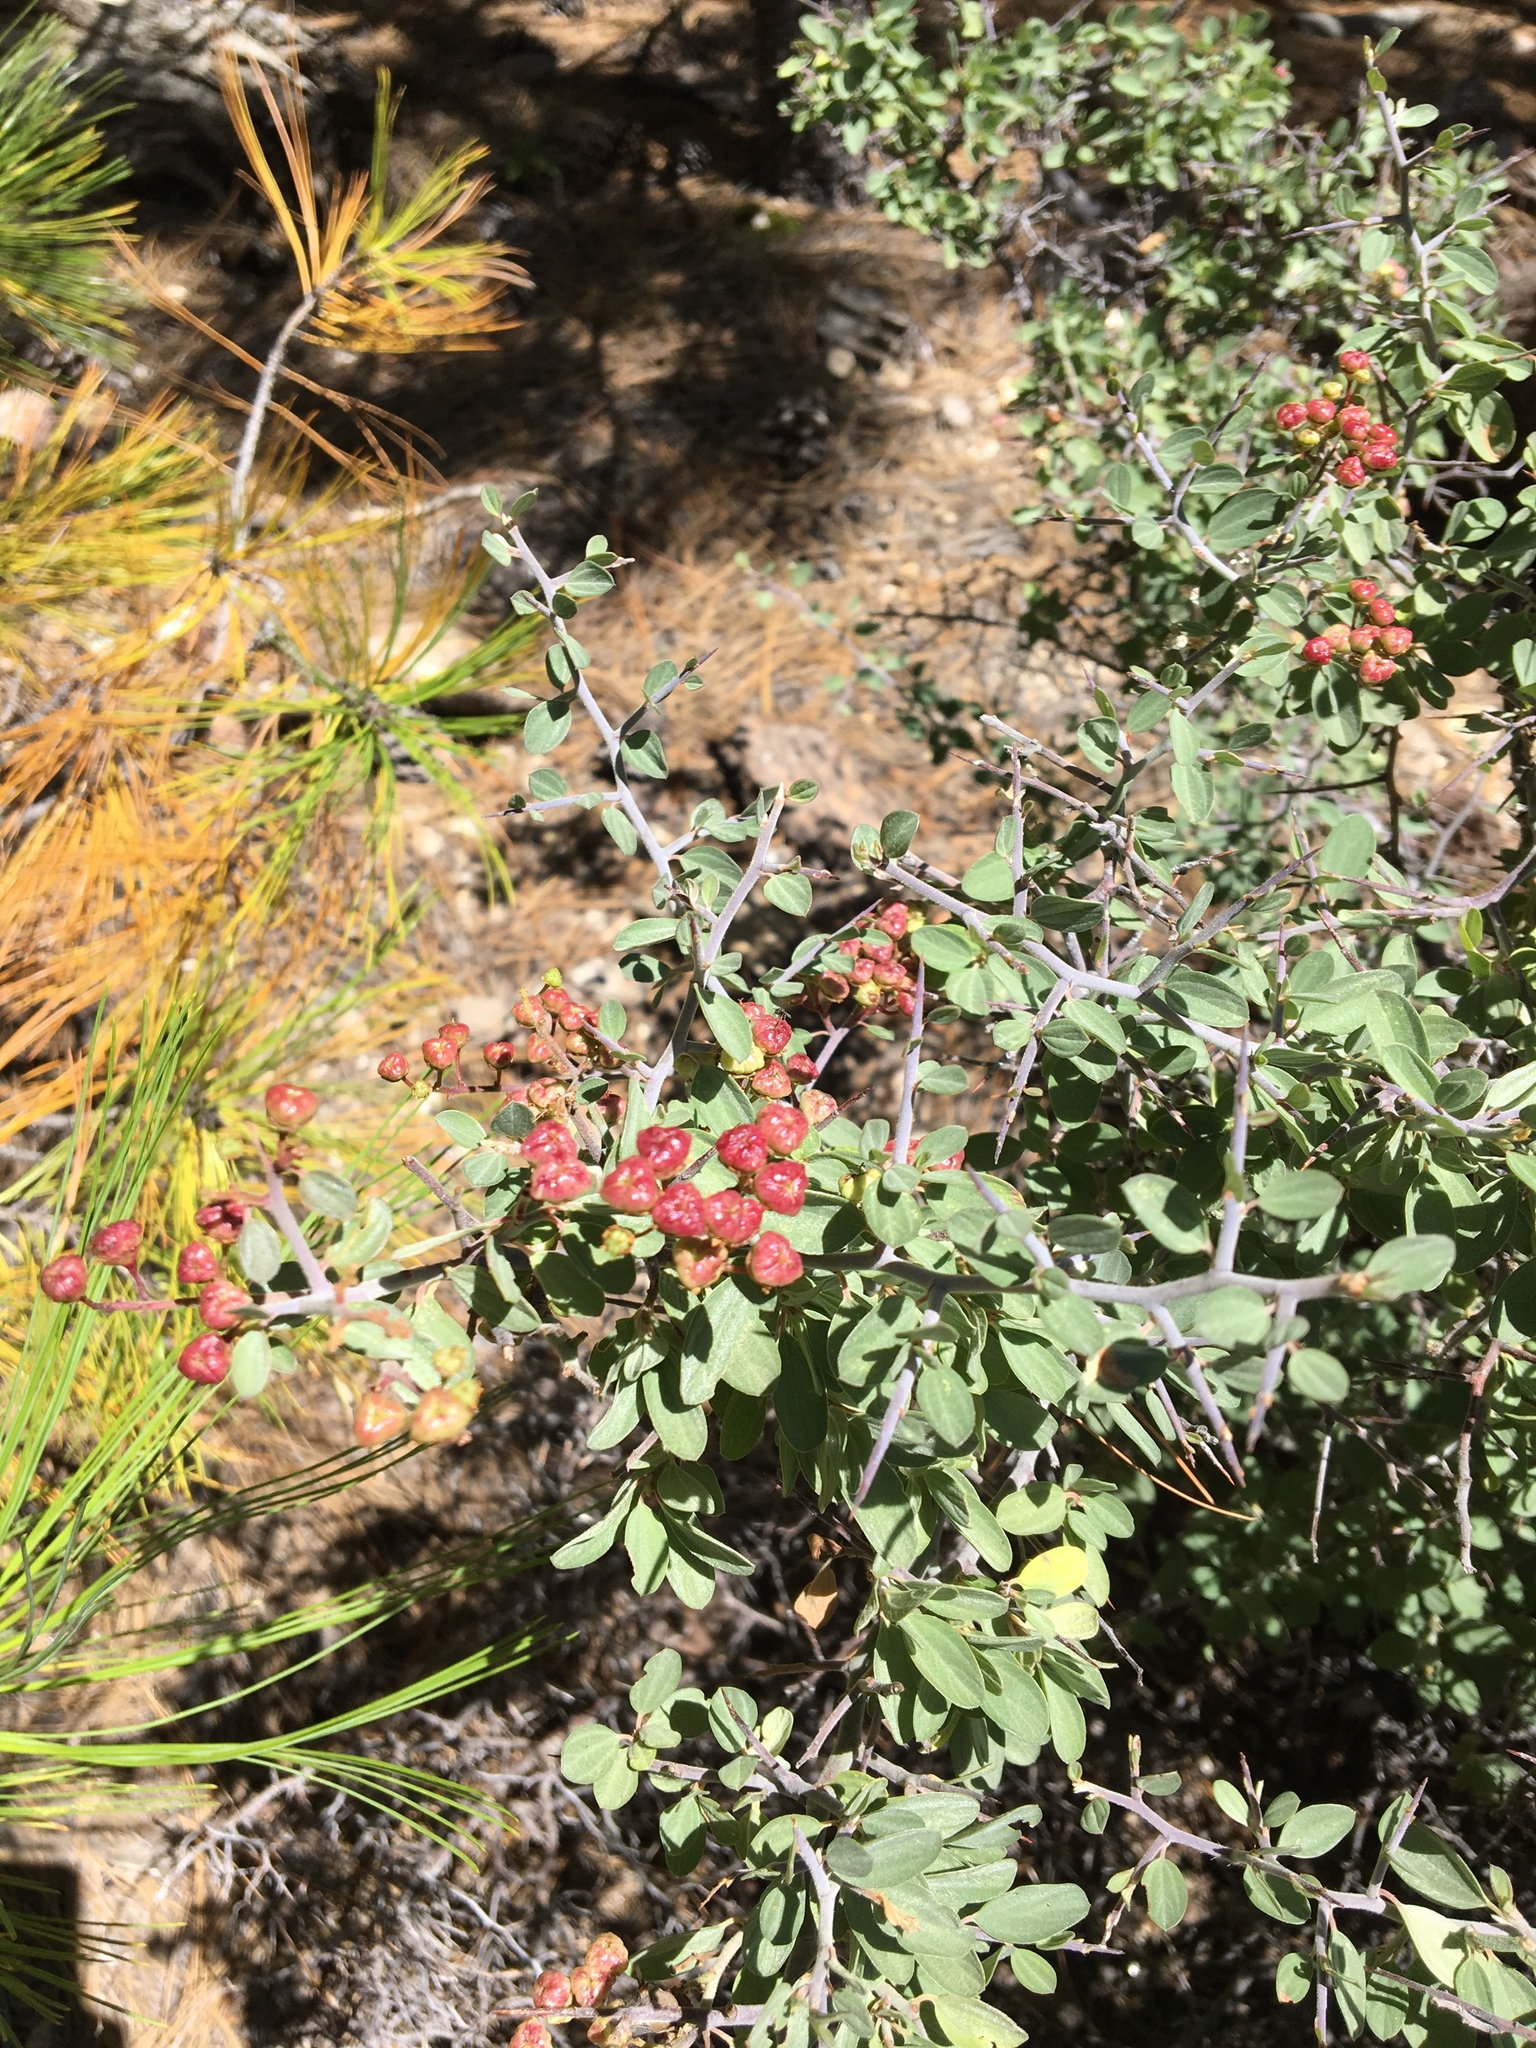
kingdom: Plantae
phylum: Tracheophyta
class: Magnoliopsida
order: Rosales
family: Rhamnaceae
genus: Ceanothus
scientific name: Ceanothus fendleri
